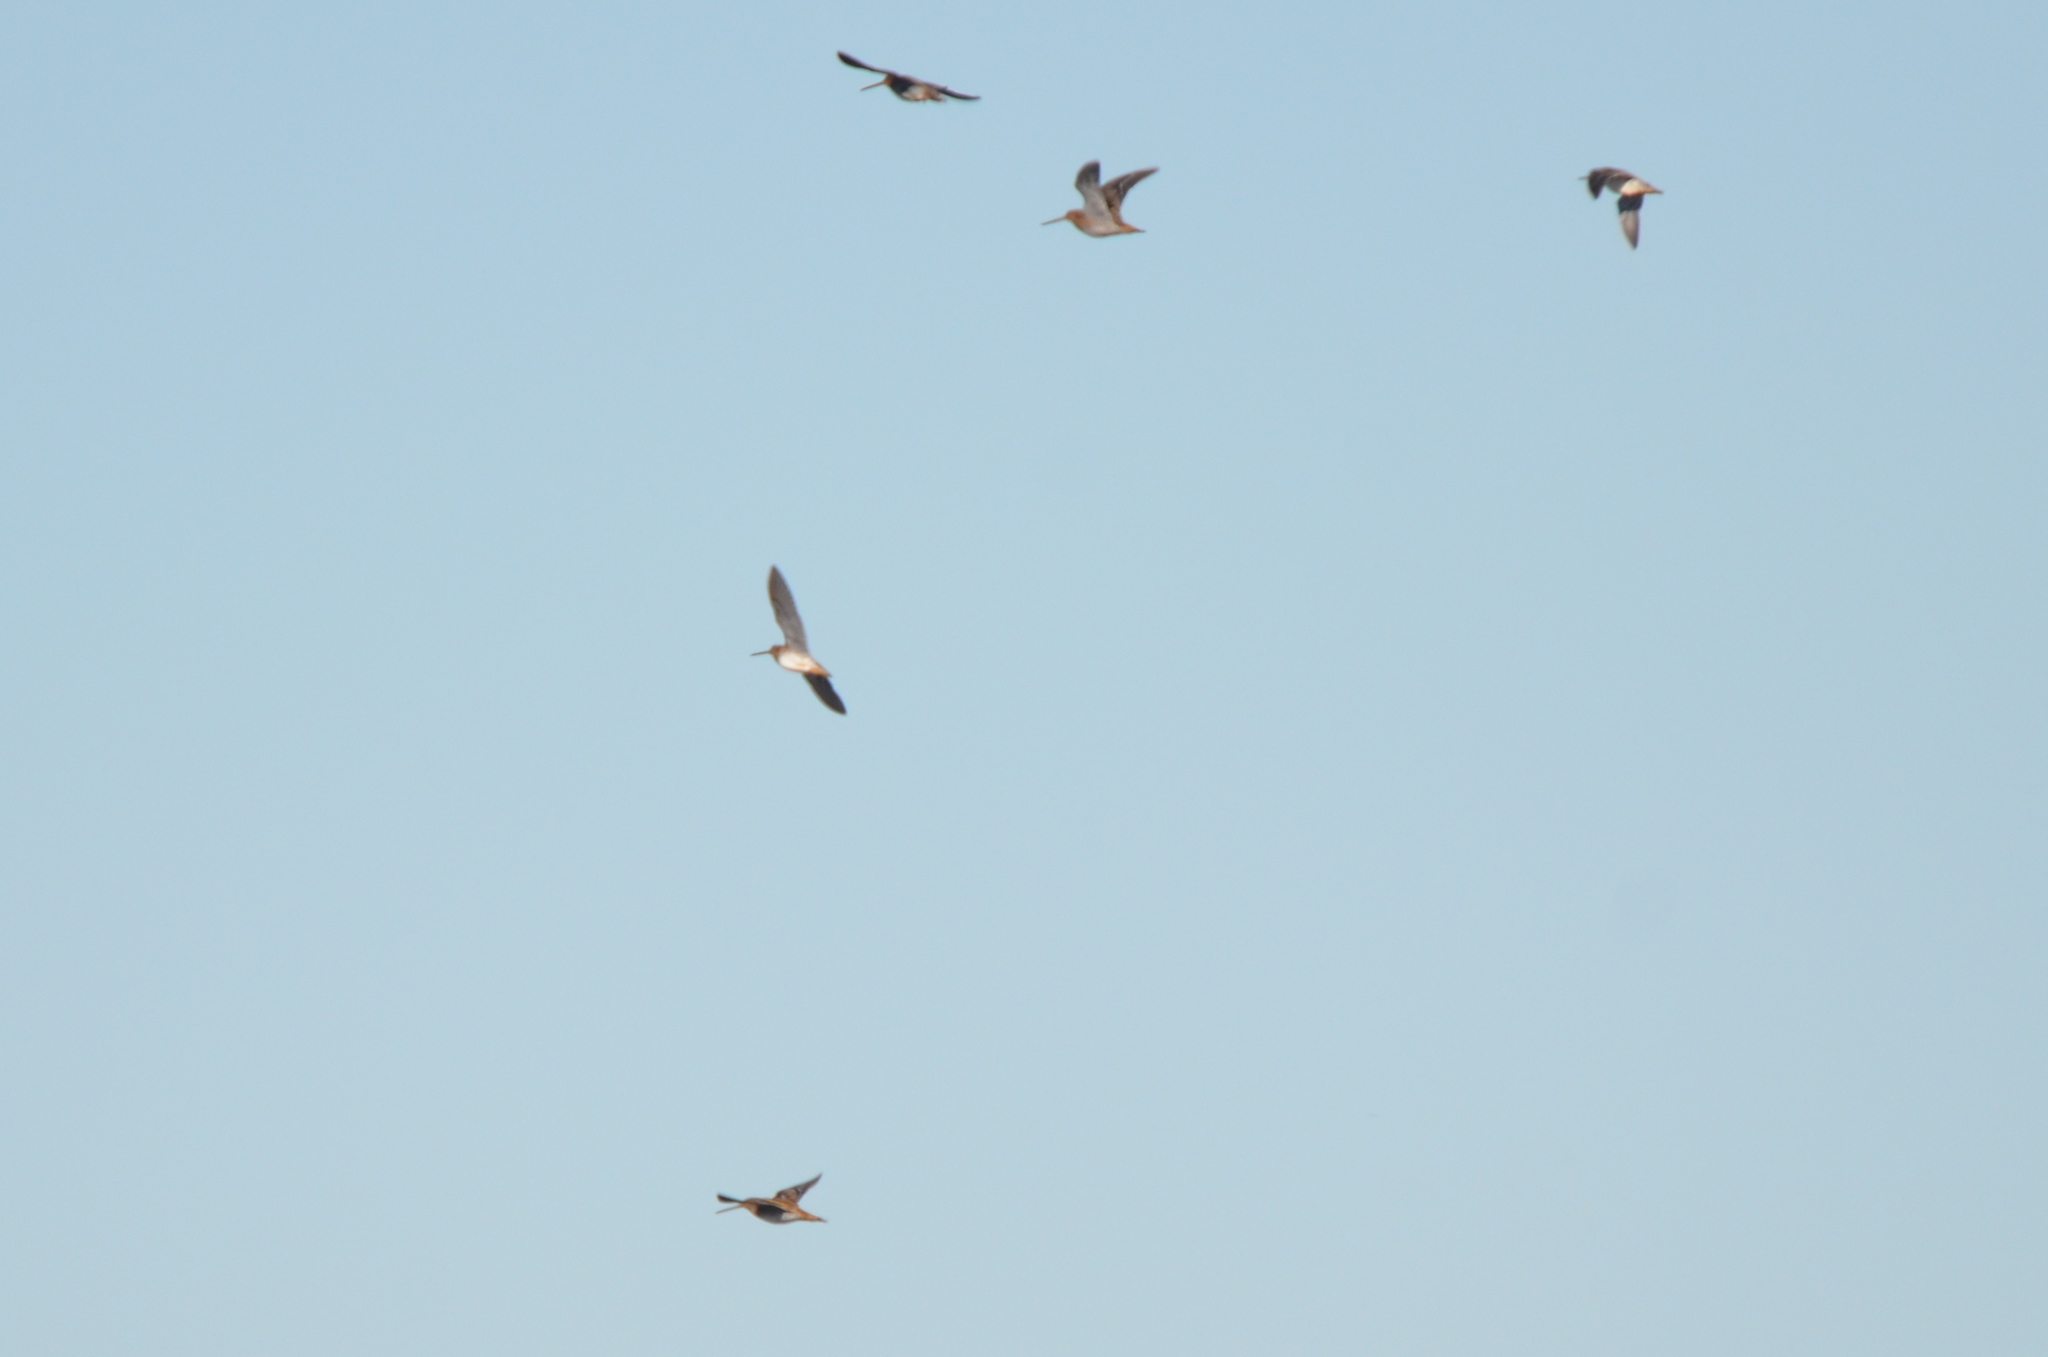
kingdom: Animalia
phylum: Chordata
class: Aves
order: Charadriiformes
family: Scolopacidae
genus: Gallinago
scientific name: Gallinago delicata
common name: Wilson's snipe
